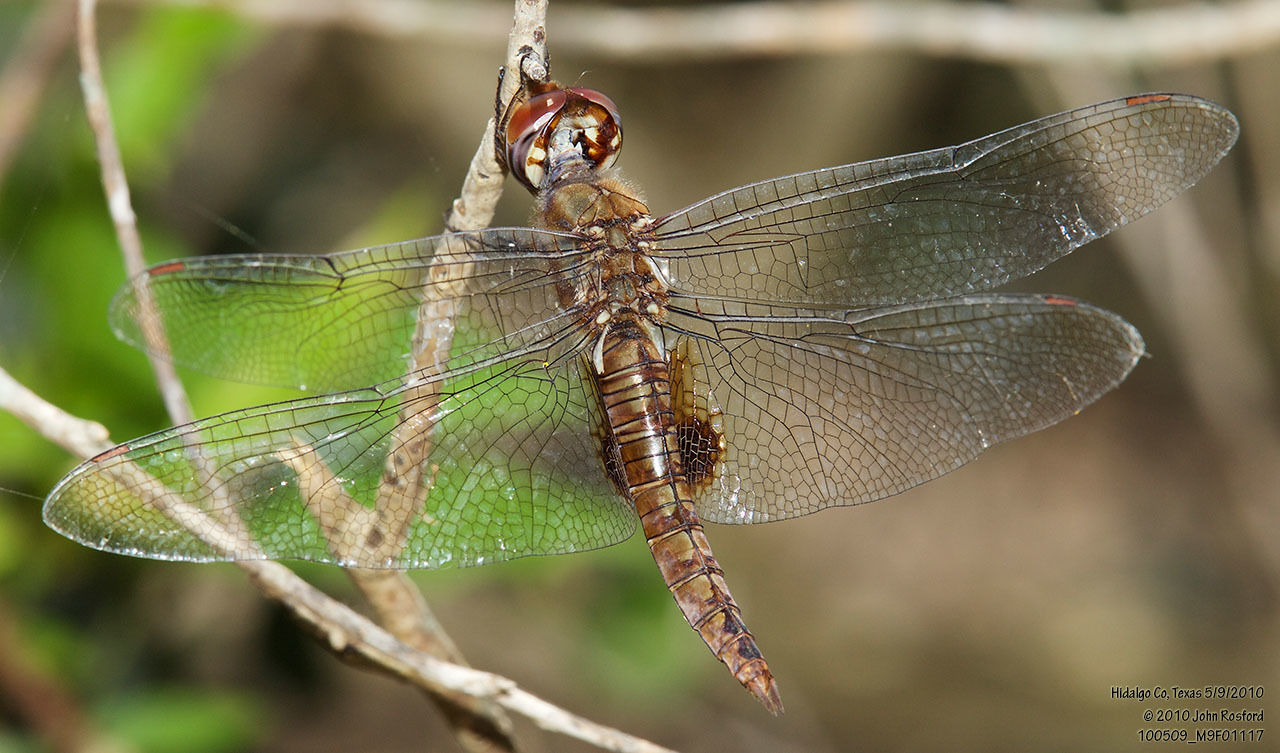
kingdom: Animalia
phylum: Arthropoda
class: Insecta
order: Odonata
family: Libellulidae
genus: Pantala
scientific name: Pantala hymenaea
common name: Spot-winged glider
